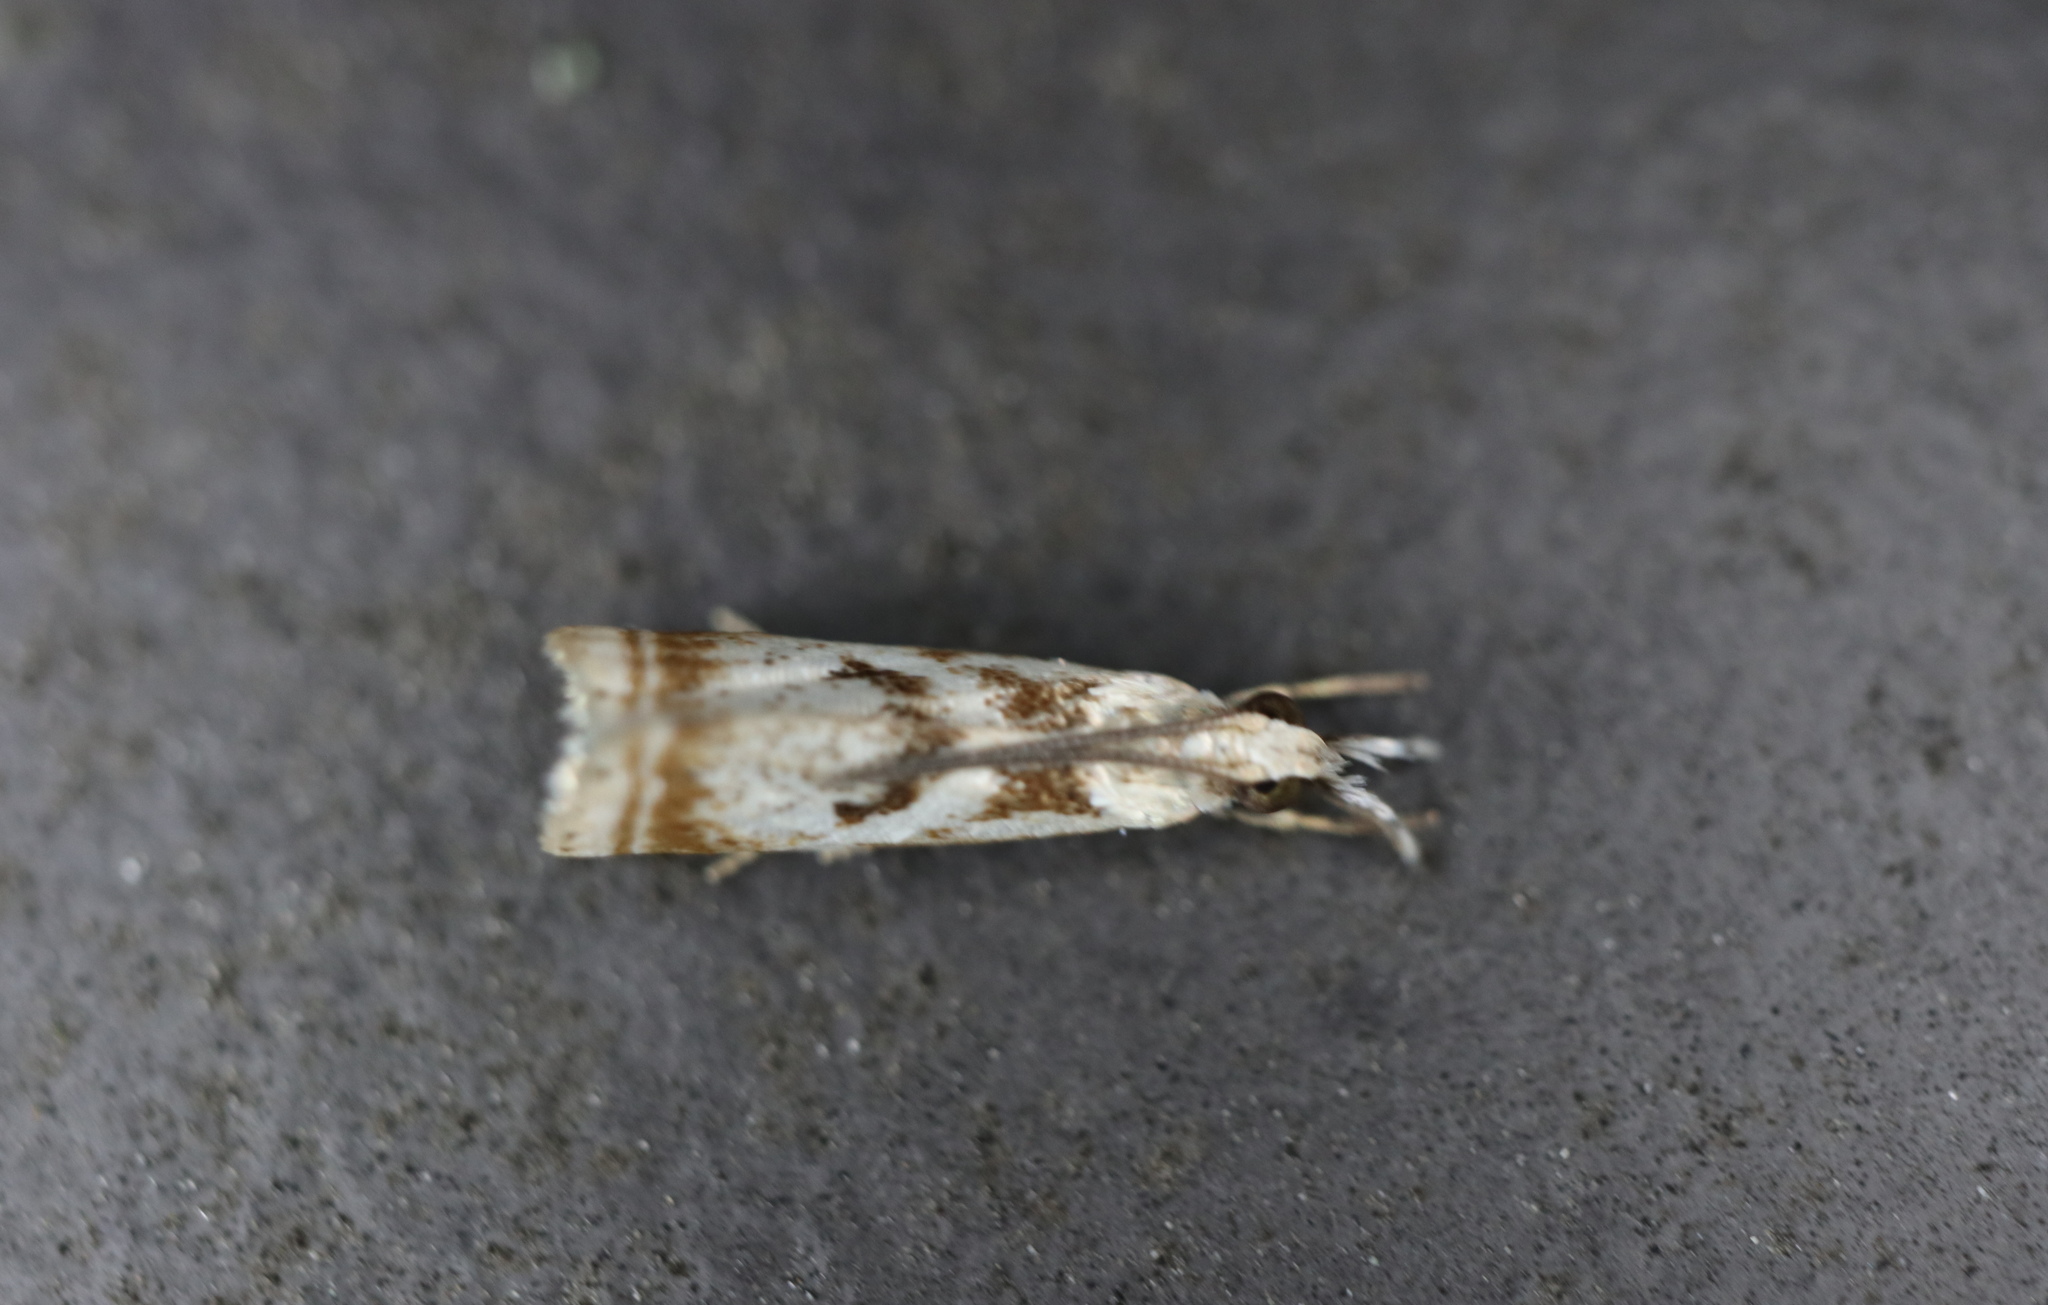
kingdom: Animalia
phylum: Arthropoda
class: Insecta
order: Lepidoptera
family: Crambidae
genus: Microcrambus
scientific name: Microcrambus elegans
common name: Elegant grass-veneer
